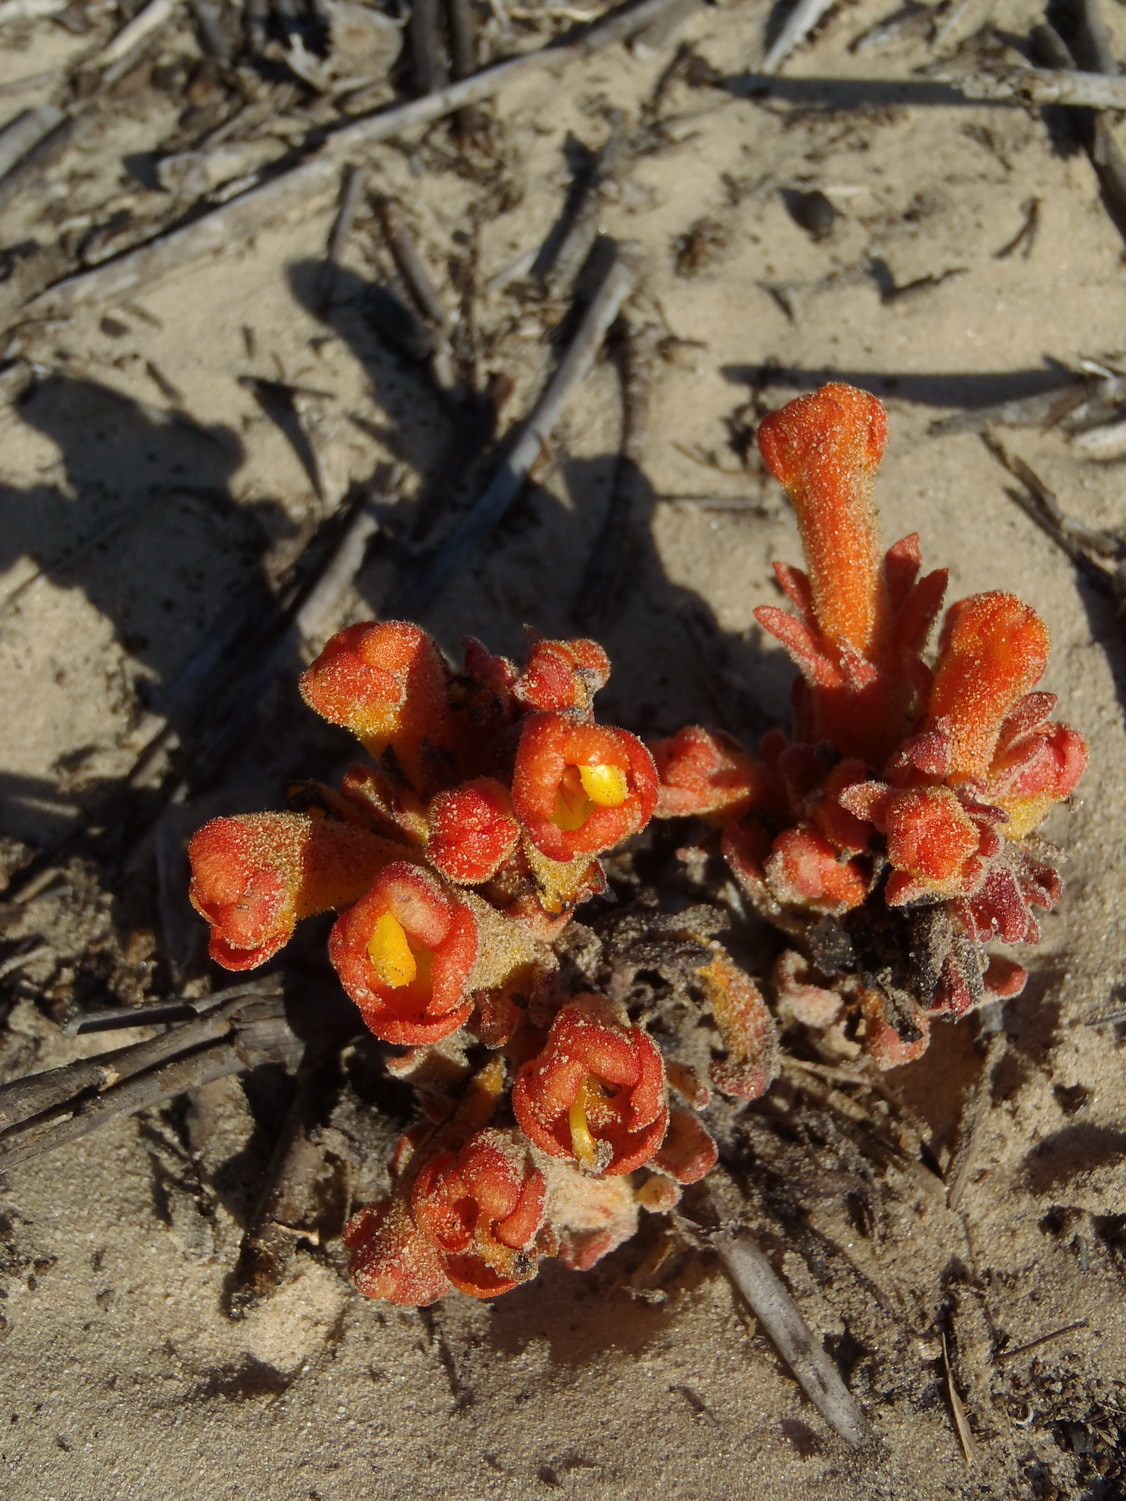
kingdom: Plantae
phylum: Tracheophyta
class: Magnoliopsida
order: Lamiales
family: Orobanchaceae
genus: Harveya
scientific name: Harveya squamosa
